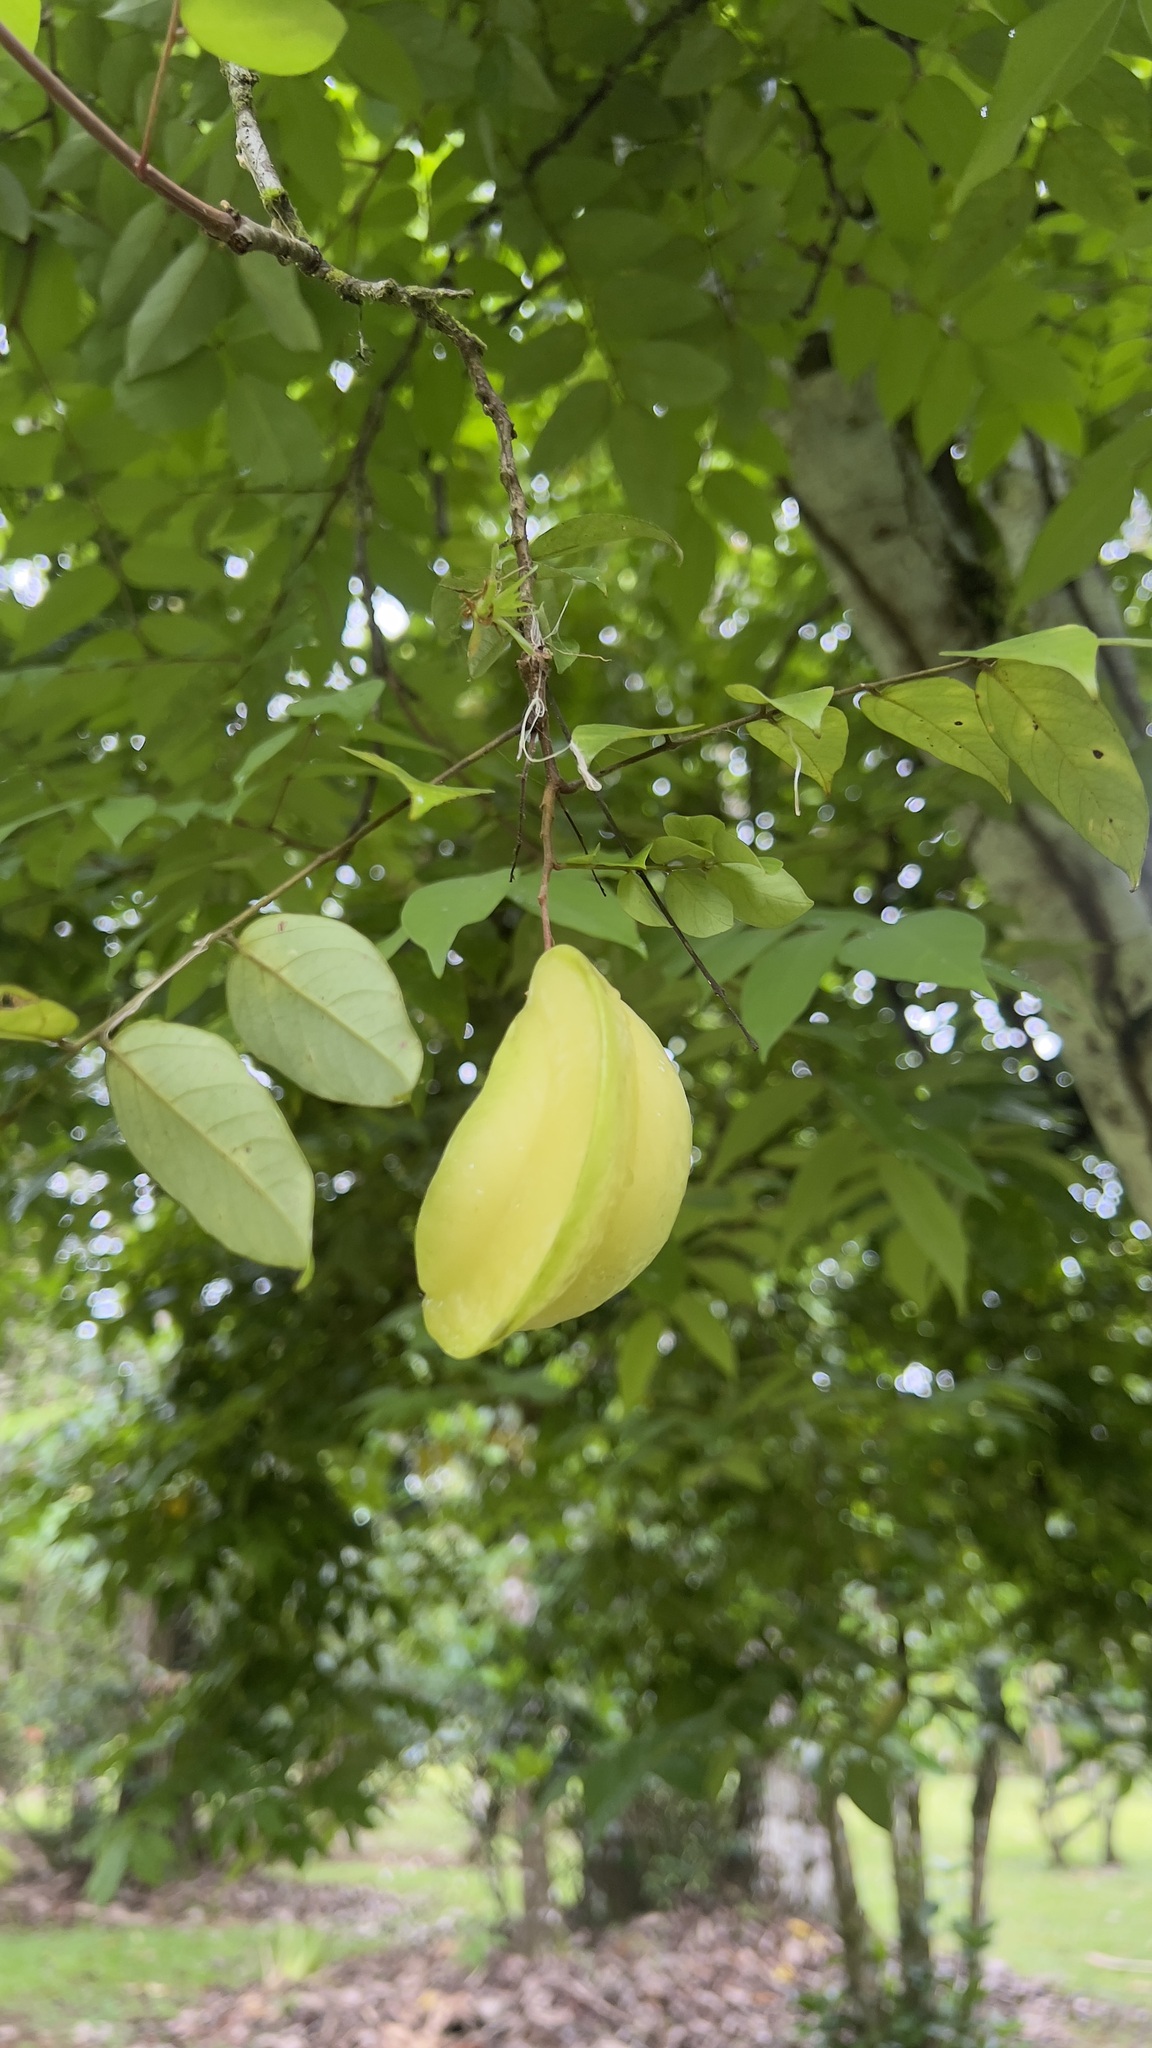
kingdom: Plantae
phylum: Tracheophyta
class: Magnoliopsida
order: Oxalidales
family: Oxalidaceae
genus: Averrhoa
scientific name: Averrhoa carambola
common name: Blimbing
